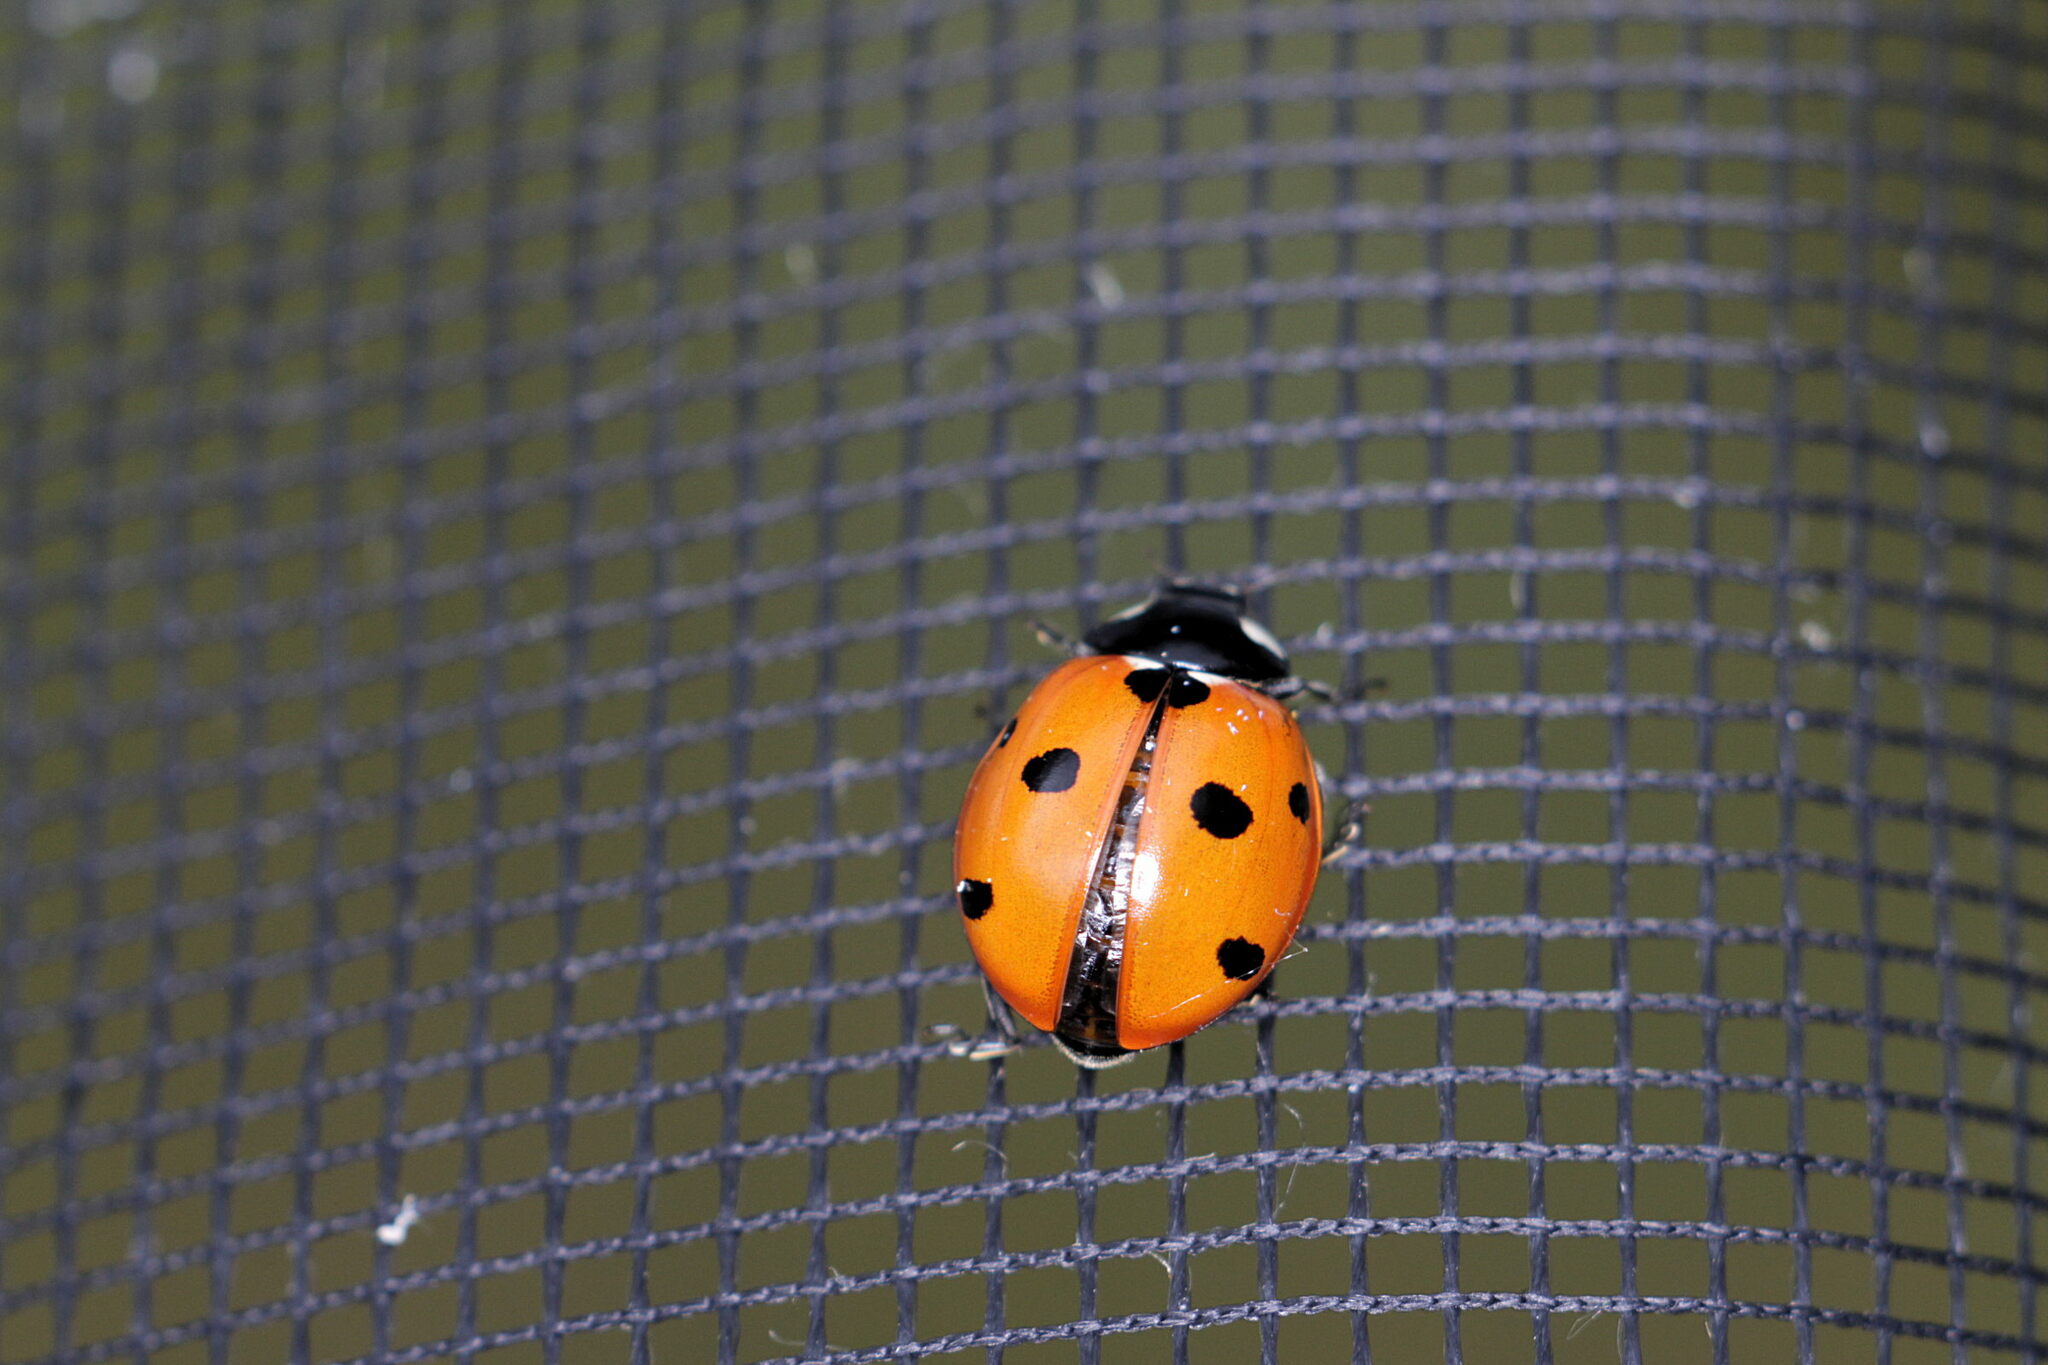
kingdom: Animalia
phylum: Arthropoda
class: Insecta
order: Coleoptera
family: Coccinellidae
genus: Coccinella
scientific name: Coccinella septempunctata
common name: Sevenspotted lady beetle
